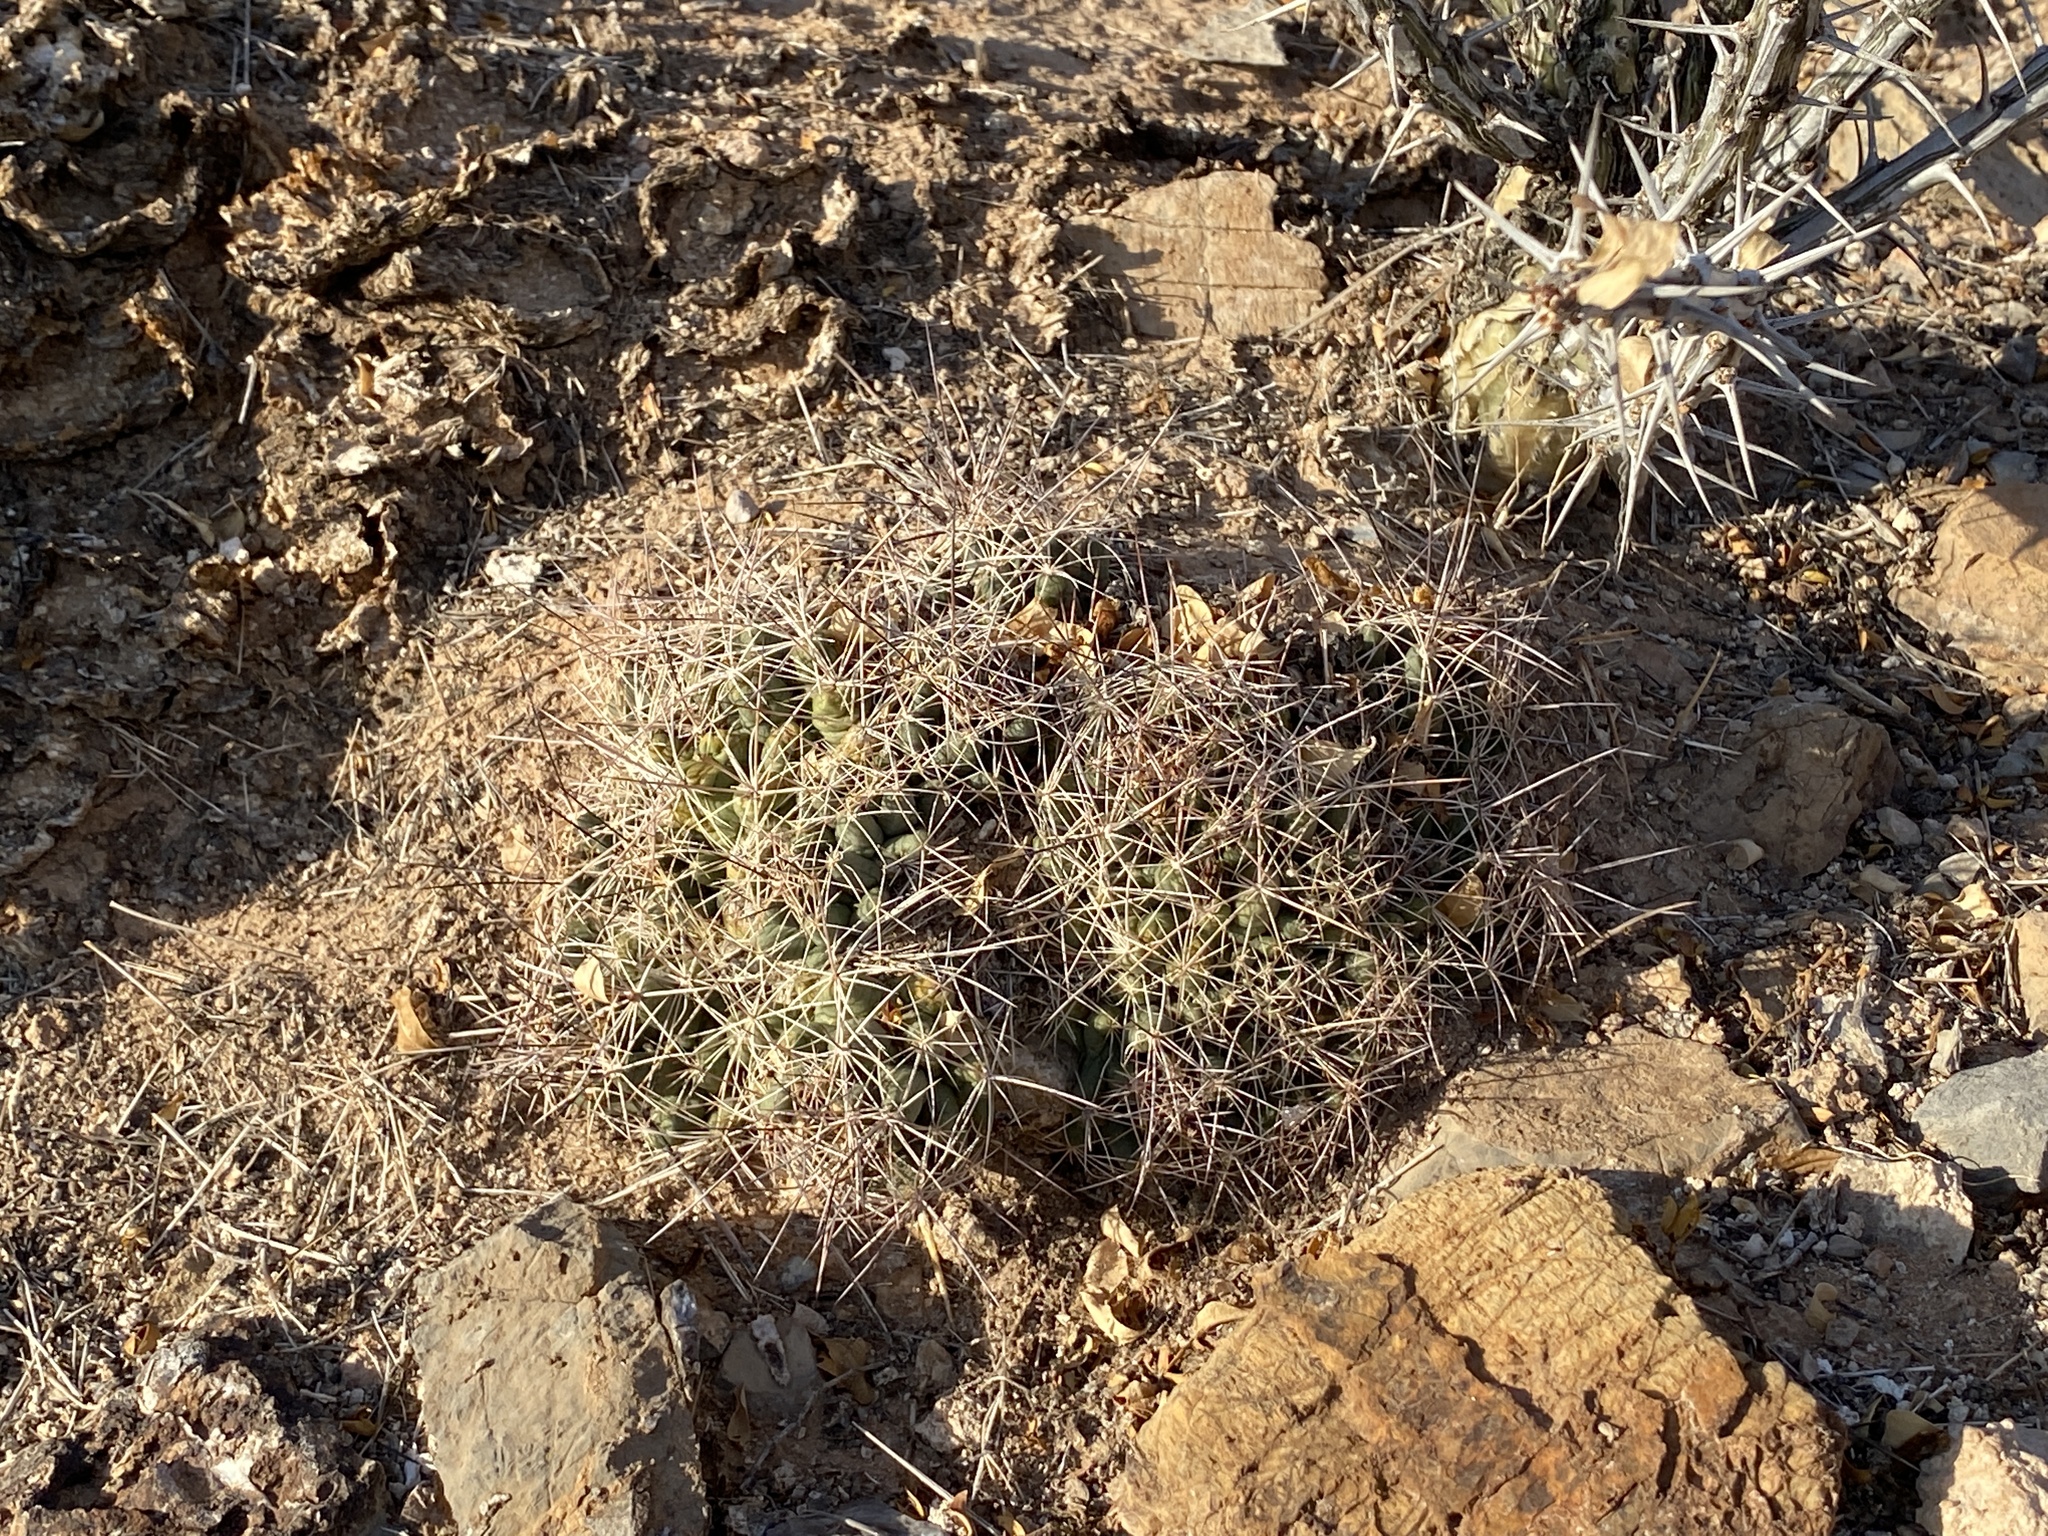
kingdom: Plantae
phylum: Tracheophyta
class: Magnoliopsida
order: Caryophyllales
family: Cactaceae
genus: Coryphantha
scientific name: Coryphantha macromeris
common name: Nipple beehive cactus
